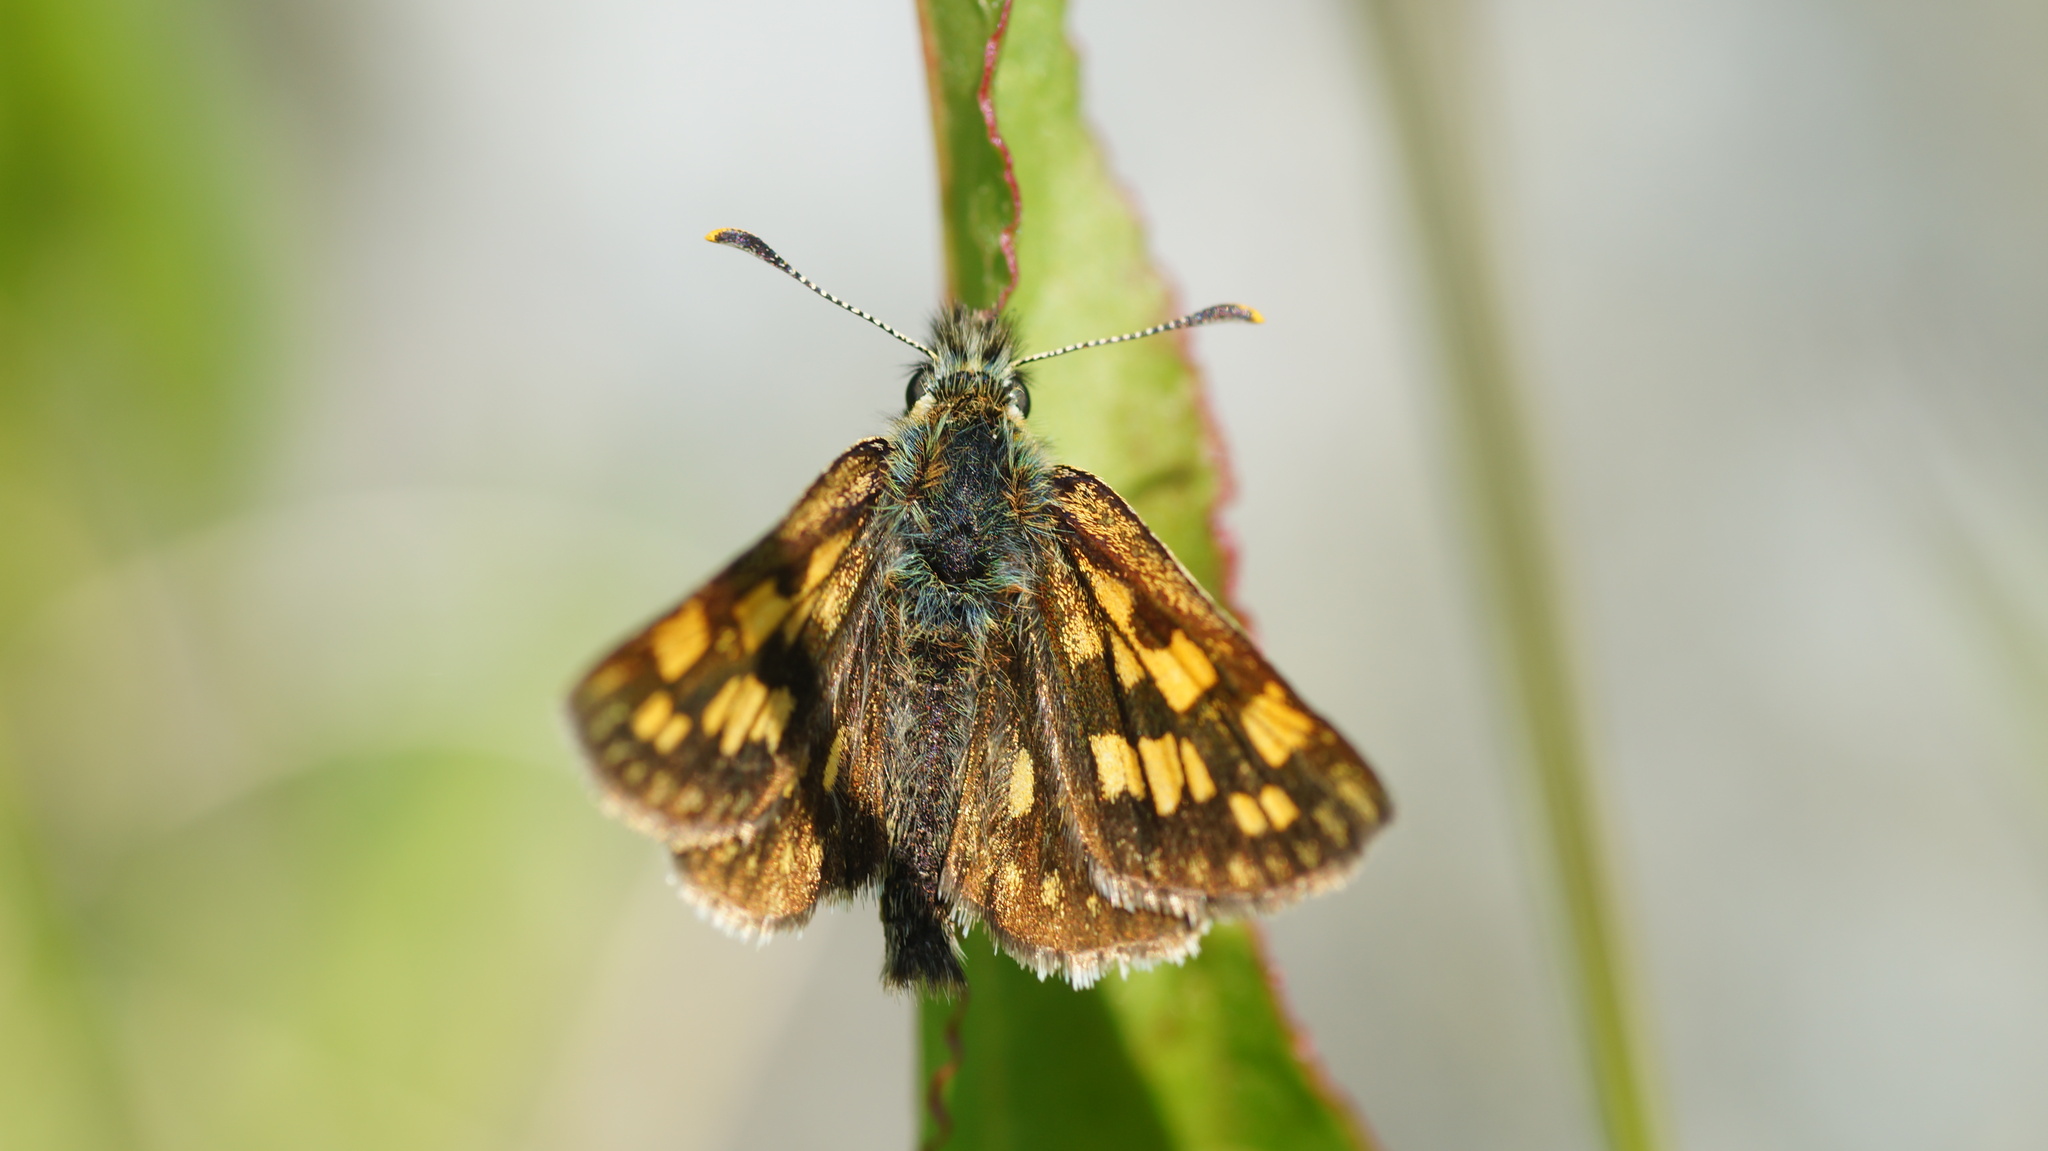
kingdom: Animalia
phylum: Arthropoda
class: Insecta
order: Lepidoptera
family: Hesperiidae
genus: Carterocephalus
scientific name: Carterocephalus palaemon
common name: Chequered skipper
